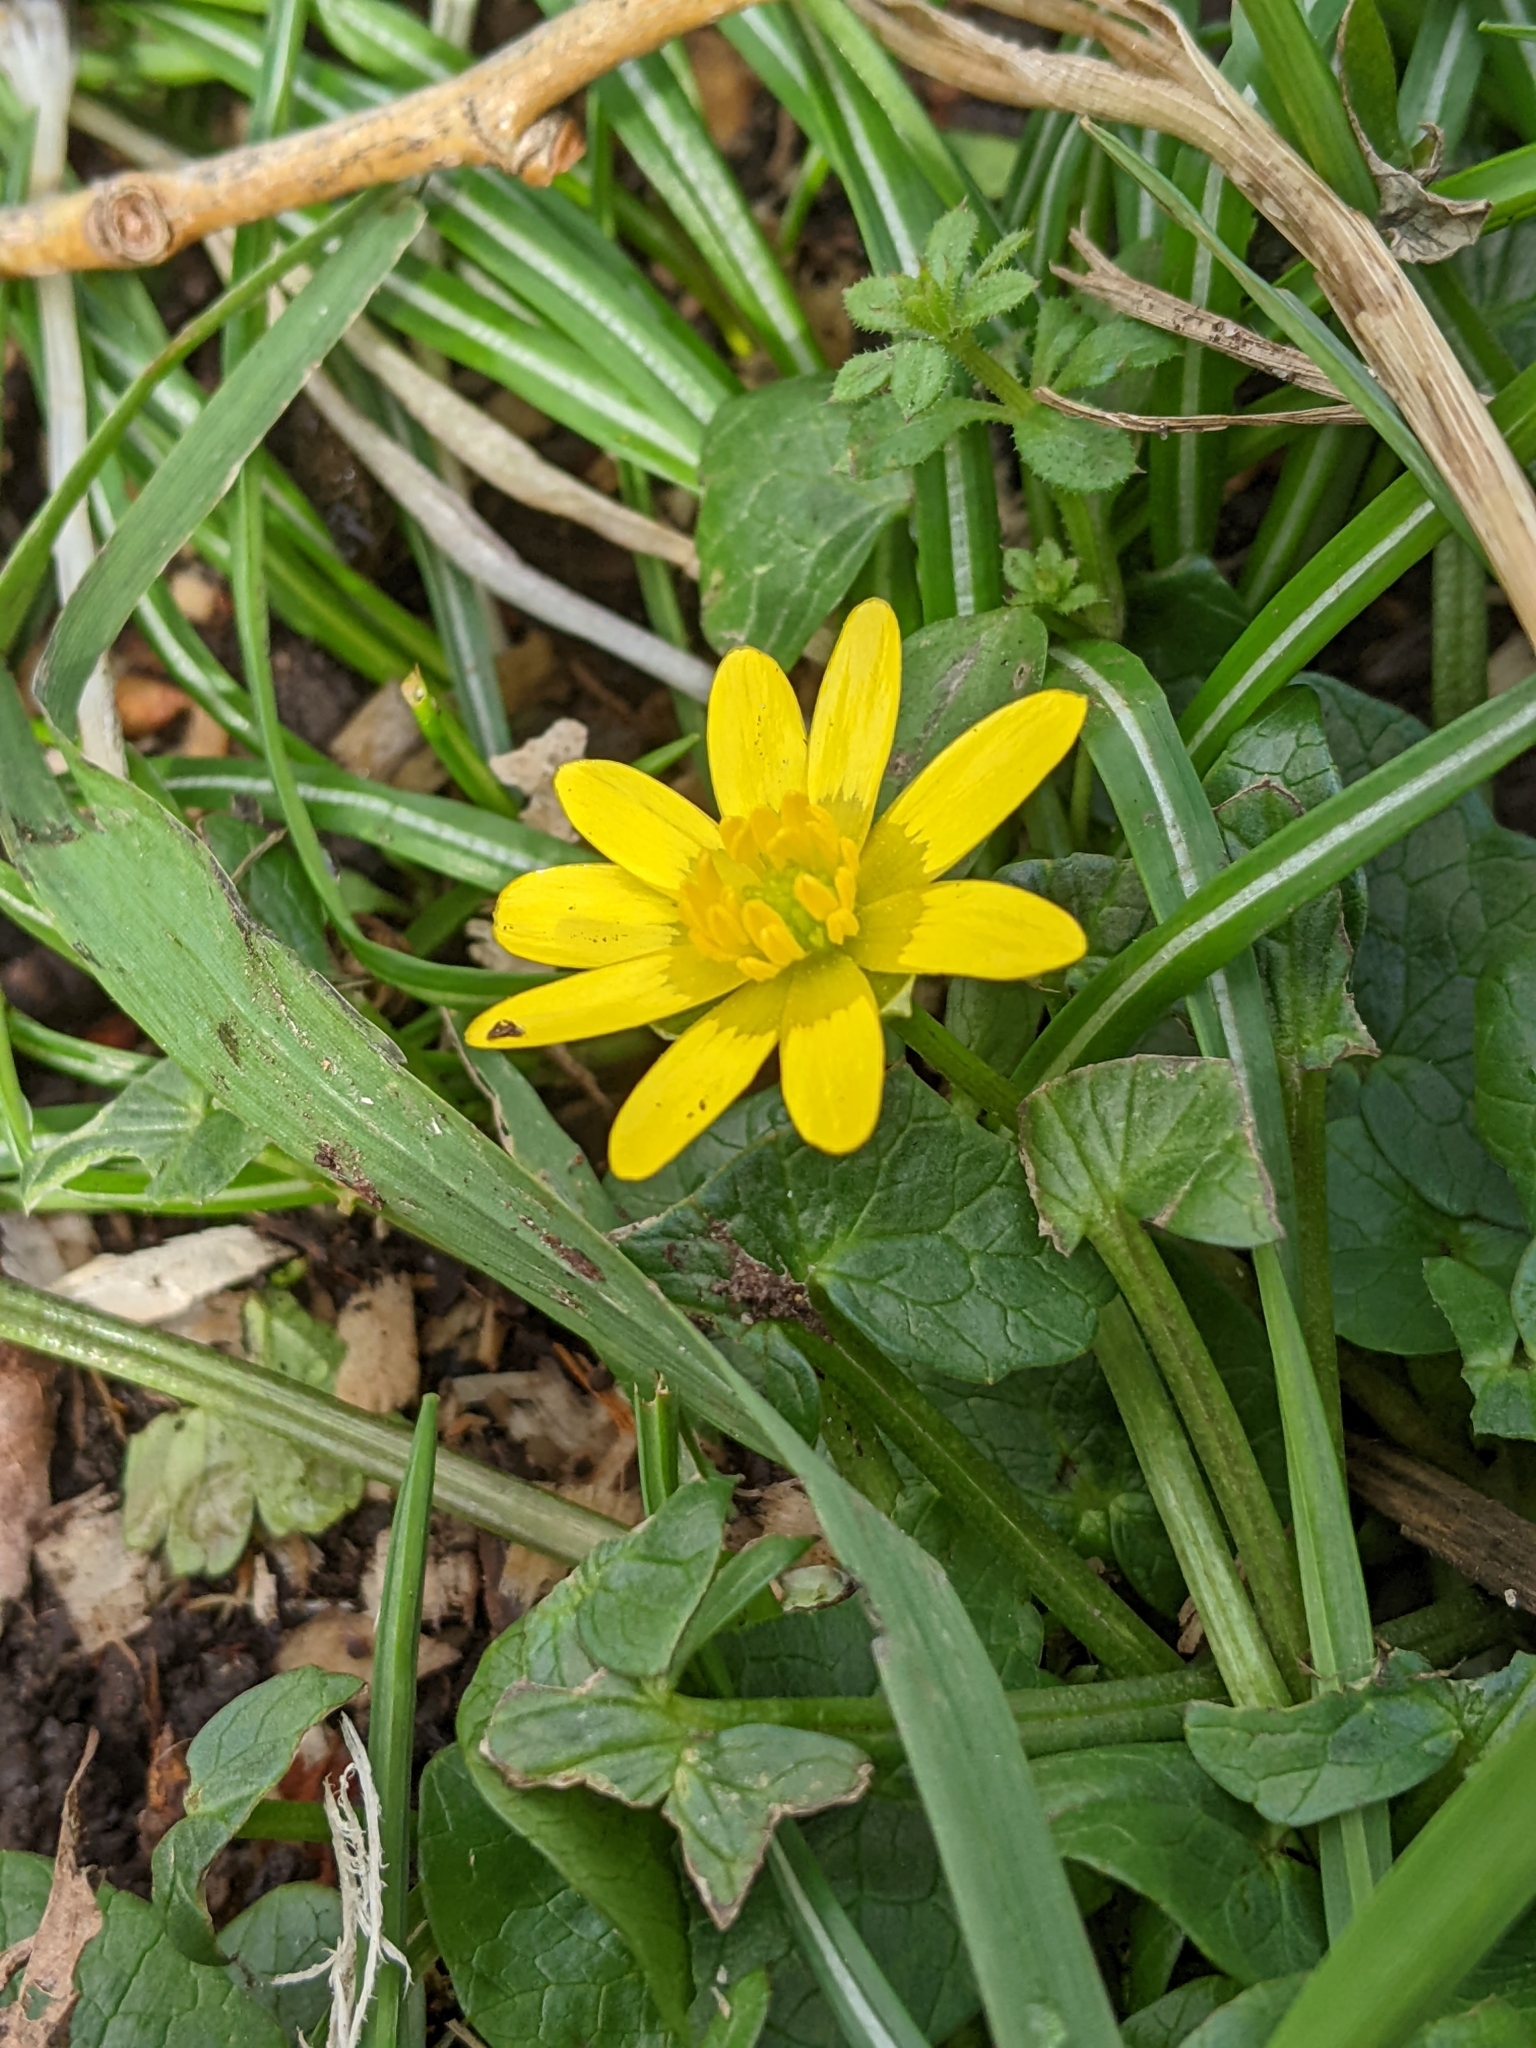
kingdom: Plantae
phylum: Tracheophyta
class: Magnoliopsida
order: Ranunculales
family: Ranunculaceae
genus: Ficaria
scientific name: Ficaria verna
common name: Lesser celandine
